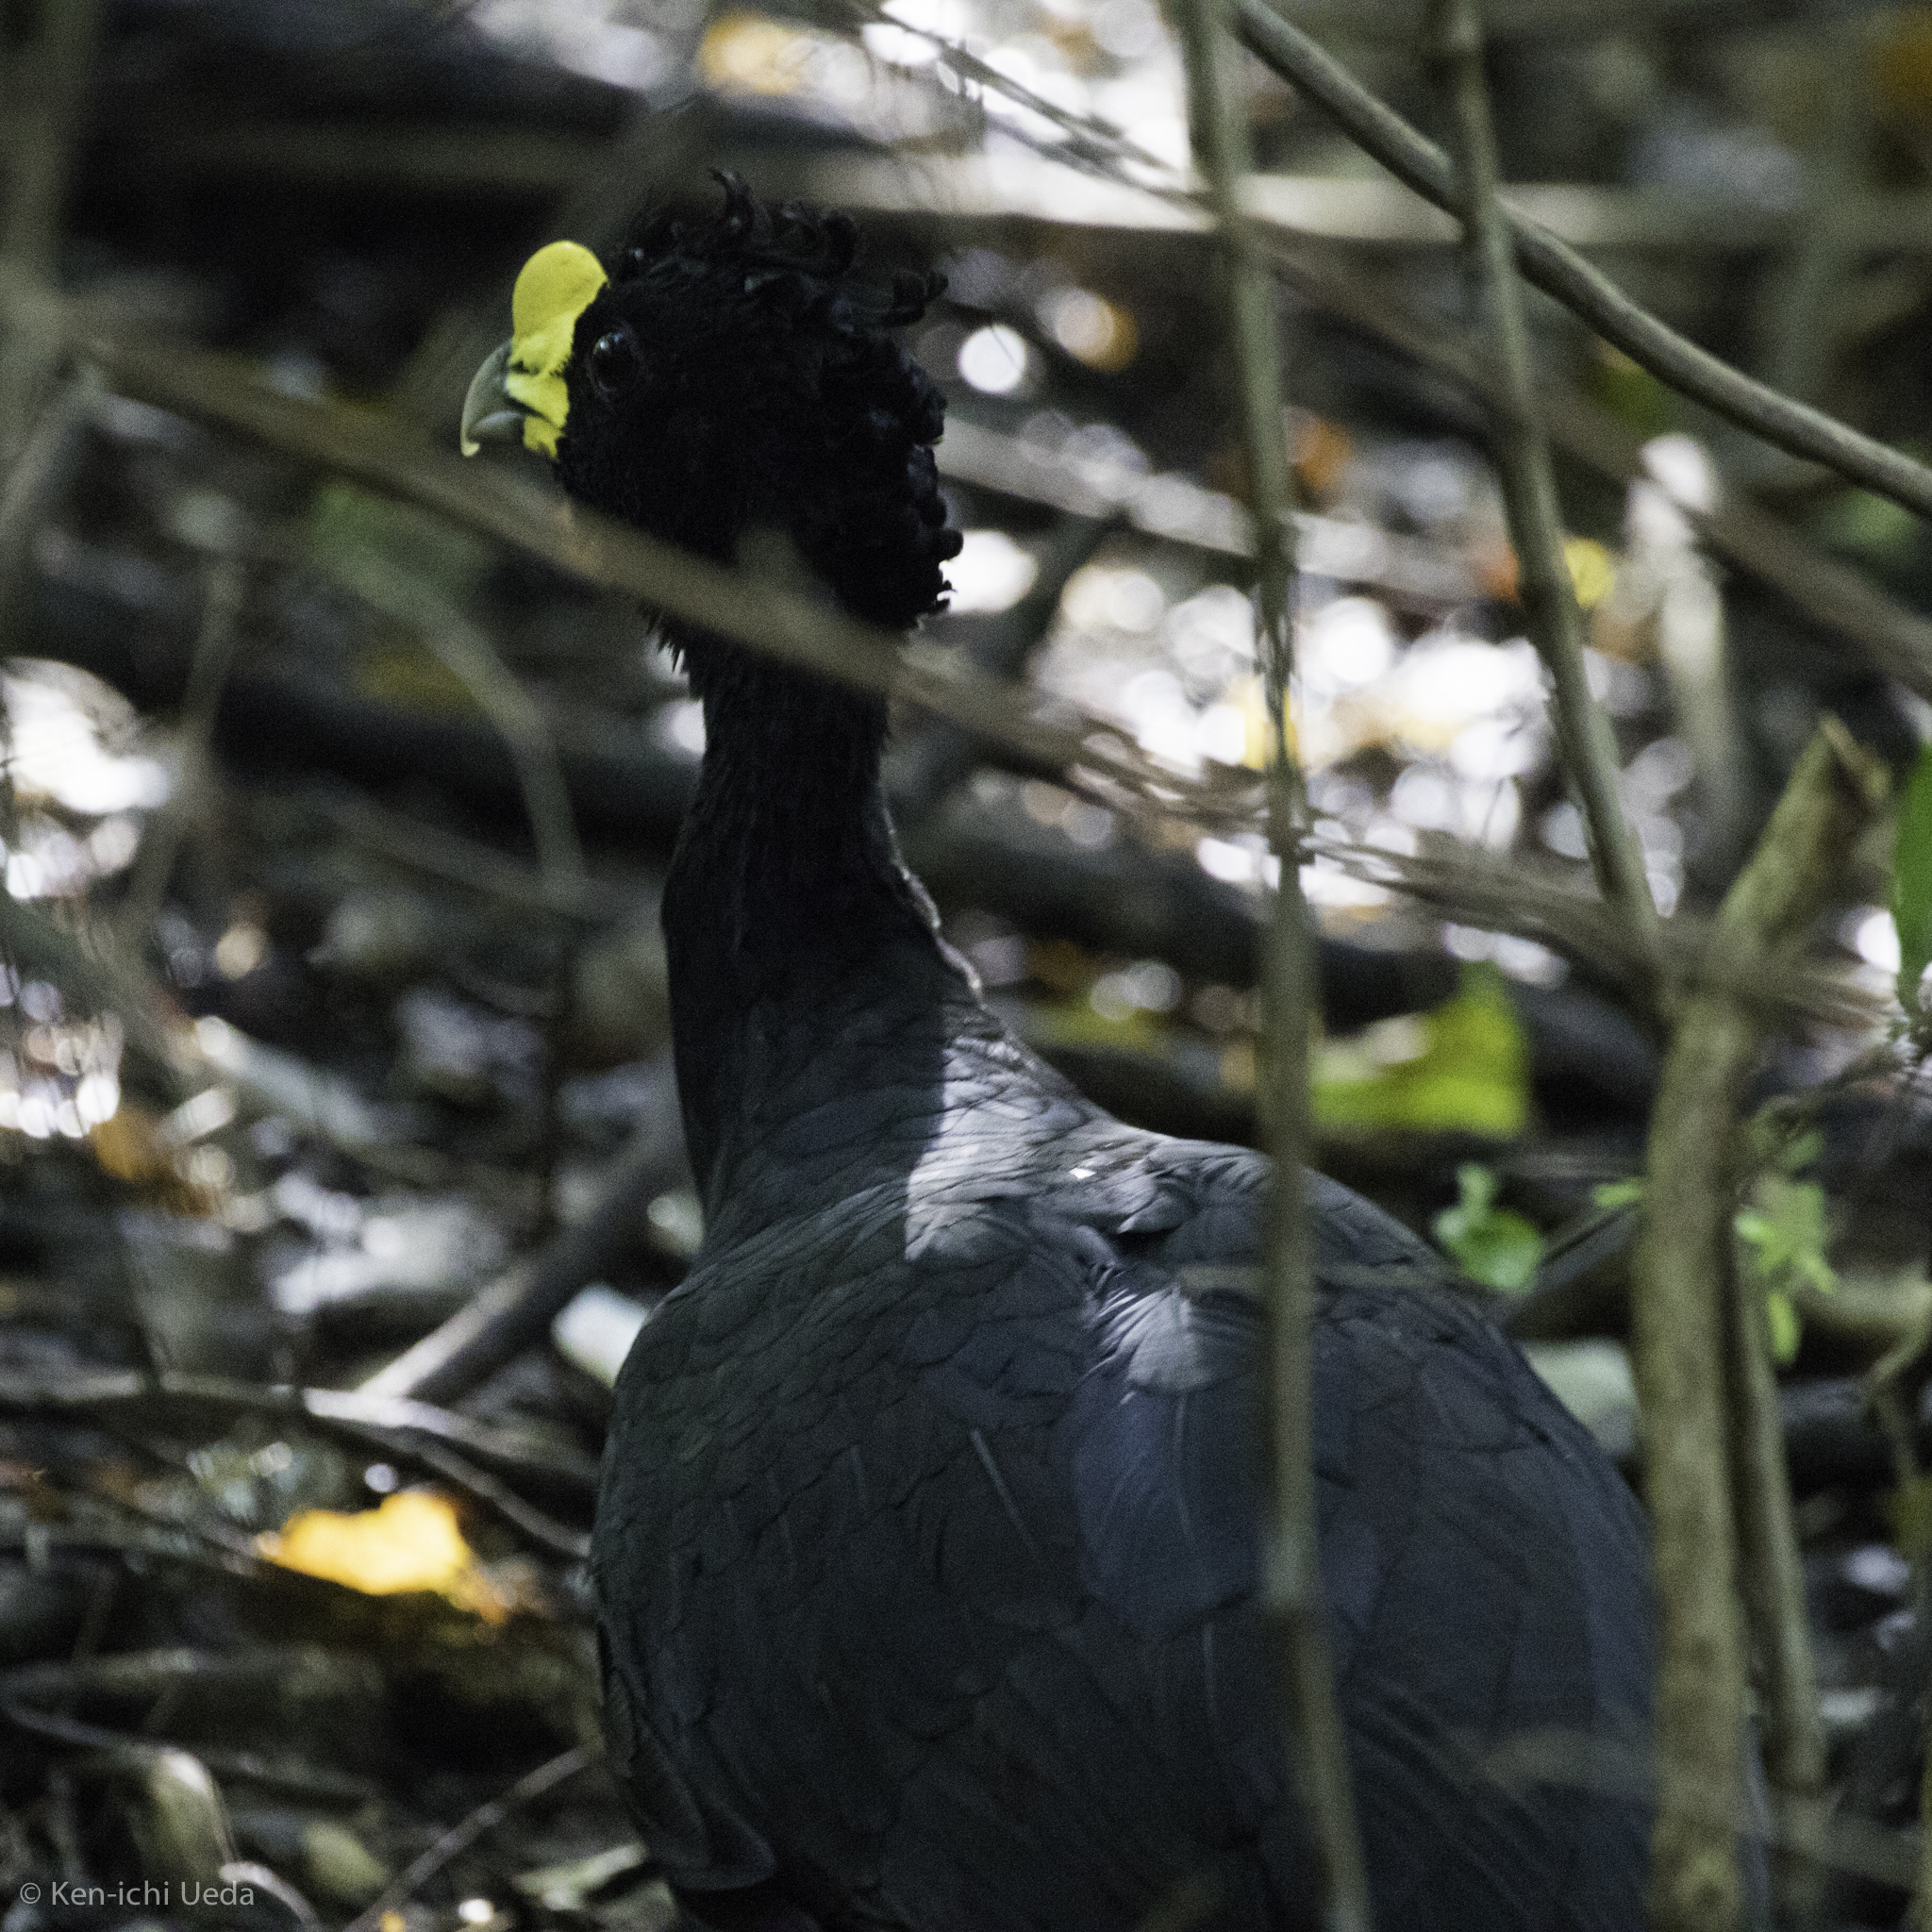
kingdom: Animalia
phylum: Chordata
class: Aves
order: Galliformes
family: Cracidae
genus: Crax
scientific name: Crax rubra
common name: Great curassow
